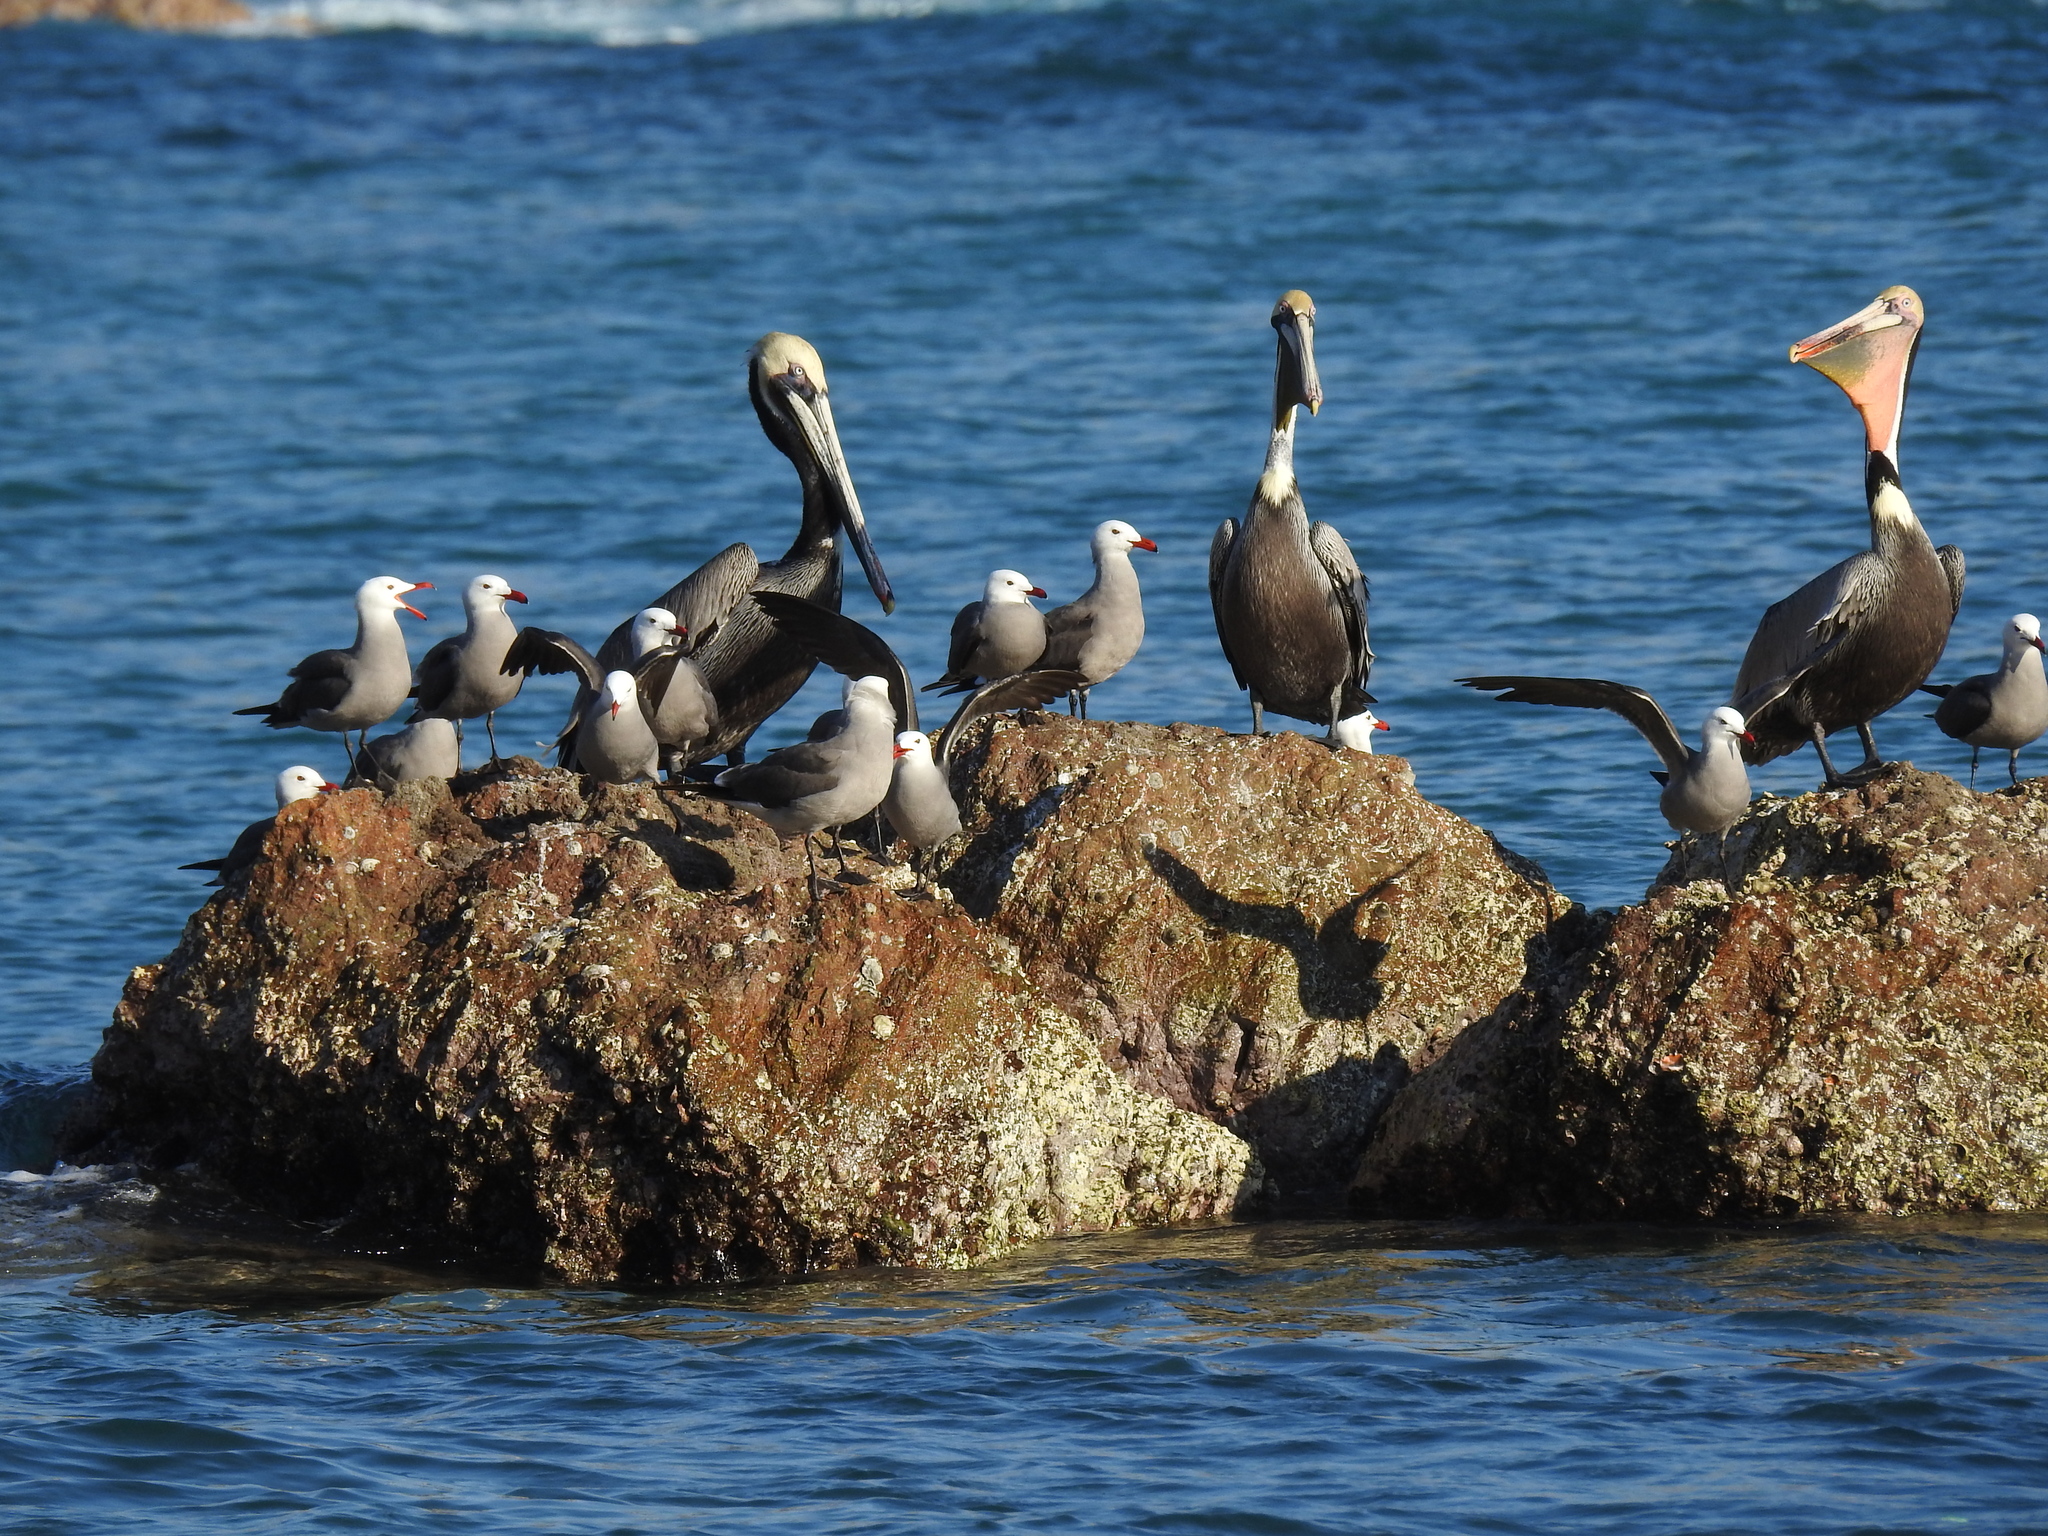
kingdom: Animalia
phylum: Chordata
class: Aves
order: Pelecaniformes
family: Pelecanidae
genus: Pelecanus
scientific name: Pelecanus occidentalis
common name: Brown pelican
